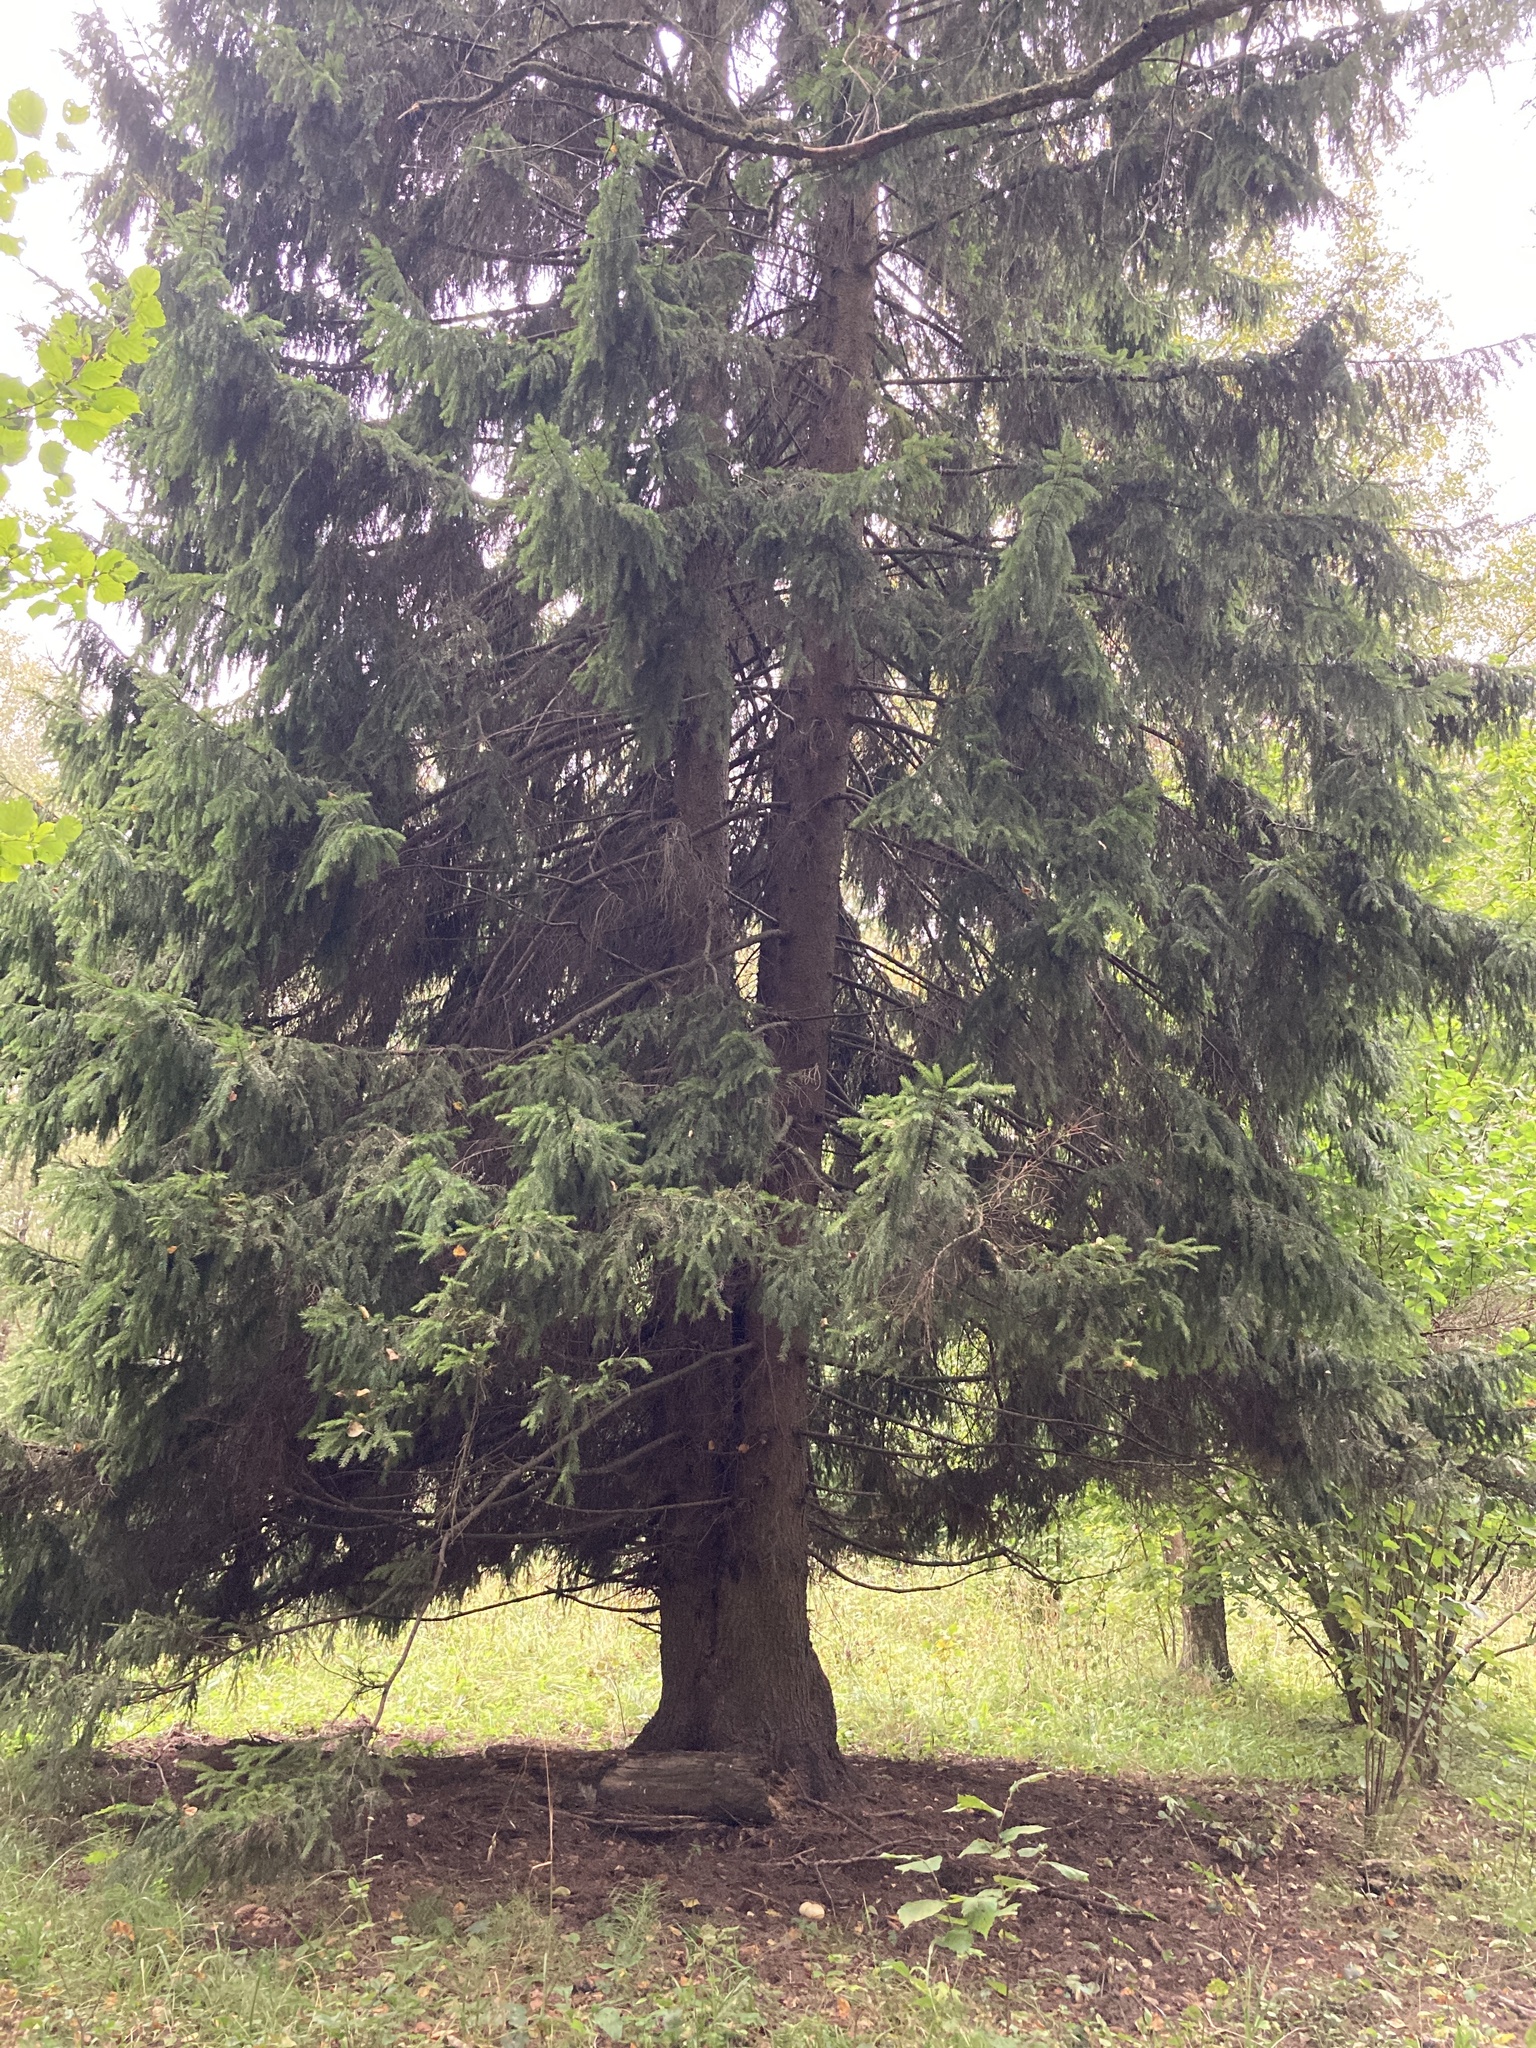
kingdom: Plantae
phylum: Tracheophyta
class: Pinopsida
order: Pinales
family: Pinaceae
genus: Picea
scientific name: Picea abies
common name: Norway spruce
